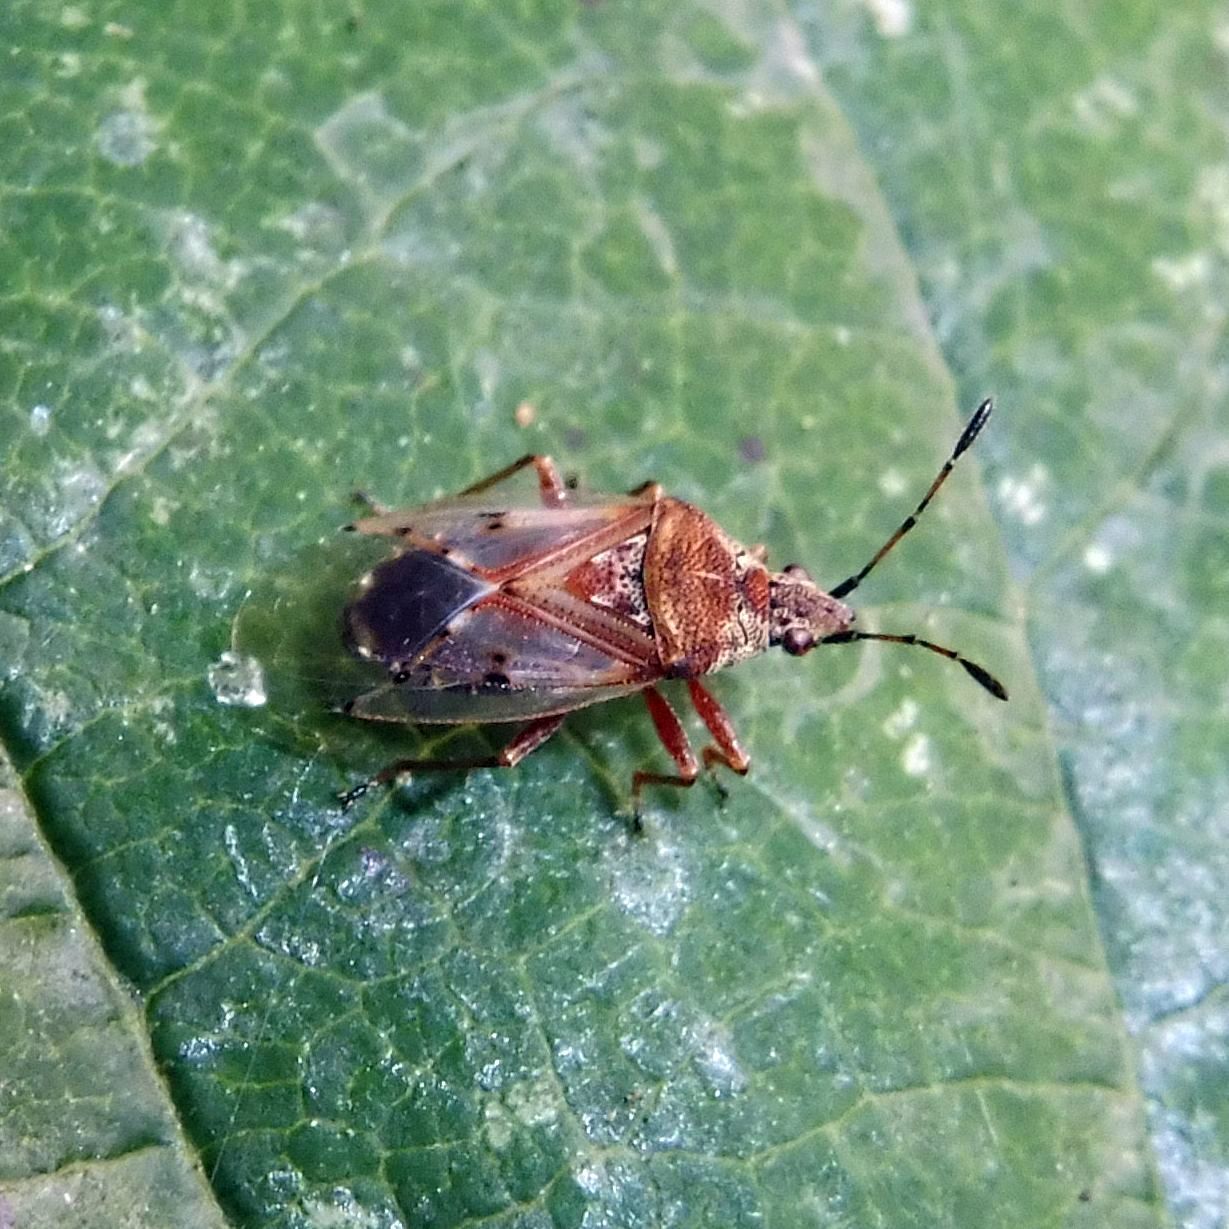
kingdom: Animalia
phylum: Arthropoda
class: Insecta
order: Hemiptera
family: Lygaeidae
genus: Kleidocerys
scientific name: Kleidocerys resedae
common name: Birch catkin bug
